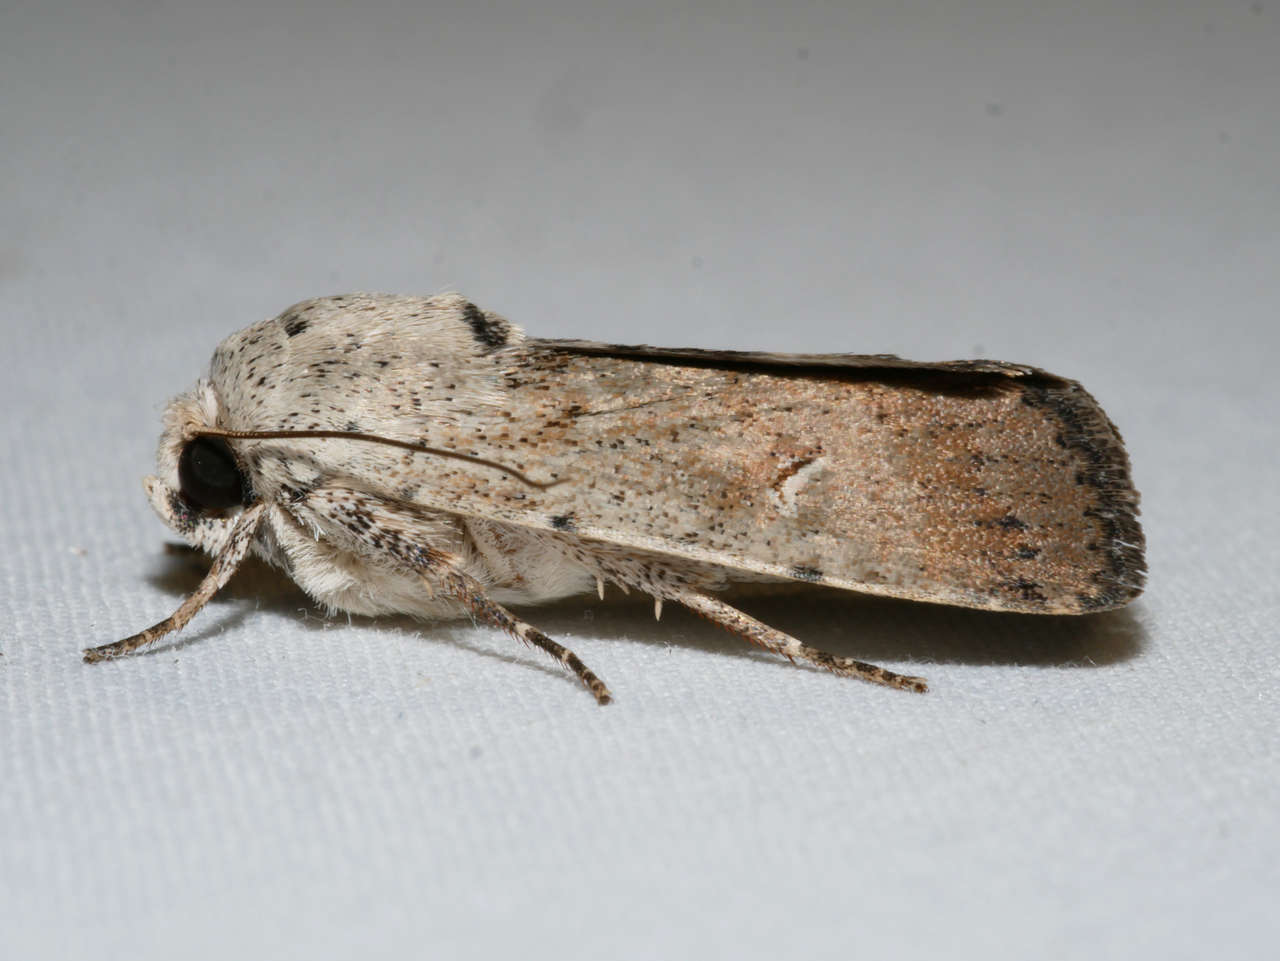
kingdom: Animalia
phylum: Arthropoda
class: Insecta
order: Lepidoptera
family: Noctuidae
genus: Proteuxoa
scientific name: Proteuxoa paratorna
